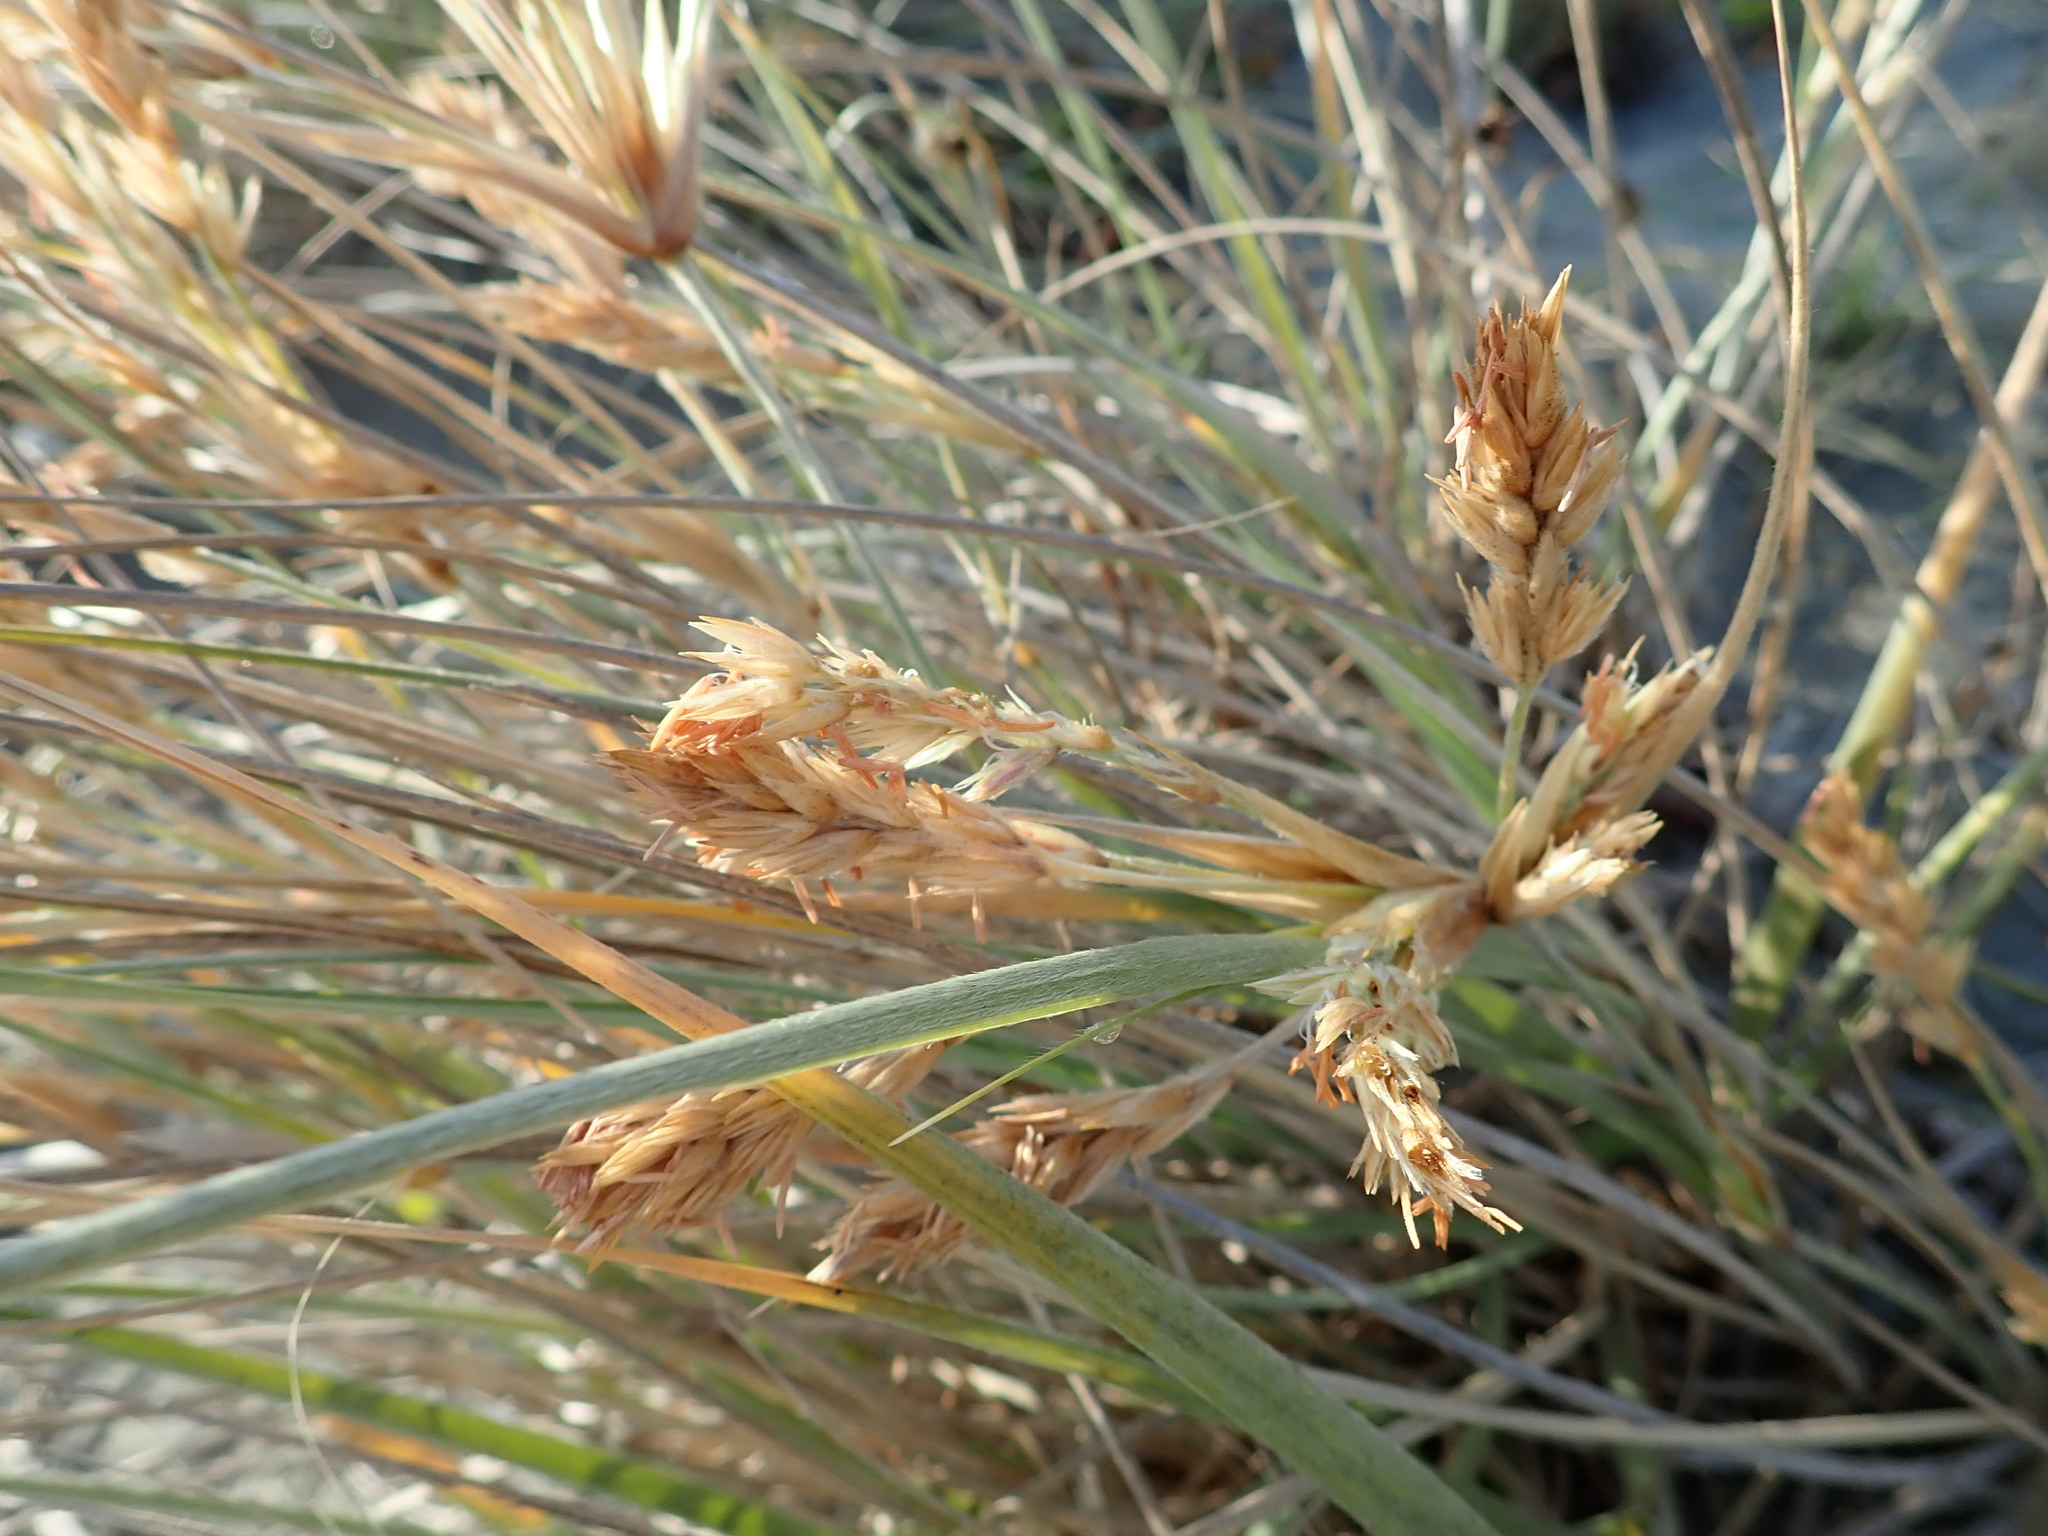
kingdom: Plantae
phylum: Tracheophyta
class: Liliopsida
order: Poales
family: Poaceae
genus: Spinifex
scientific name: Spinifex sericeus
